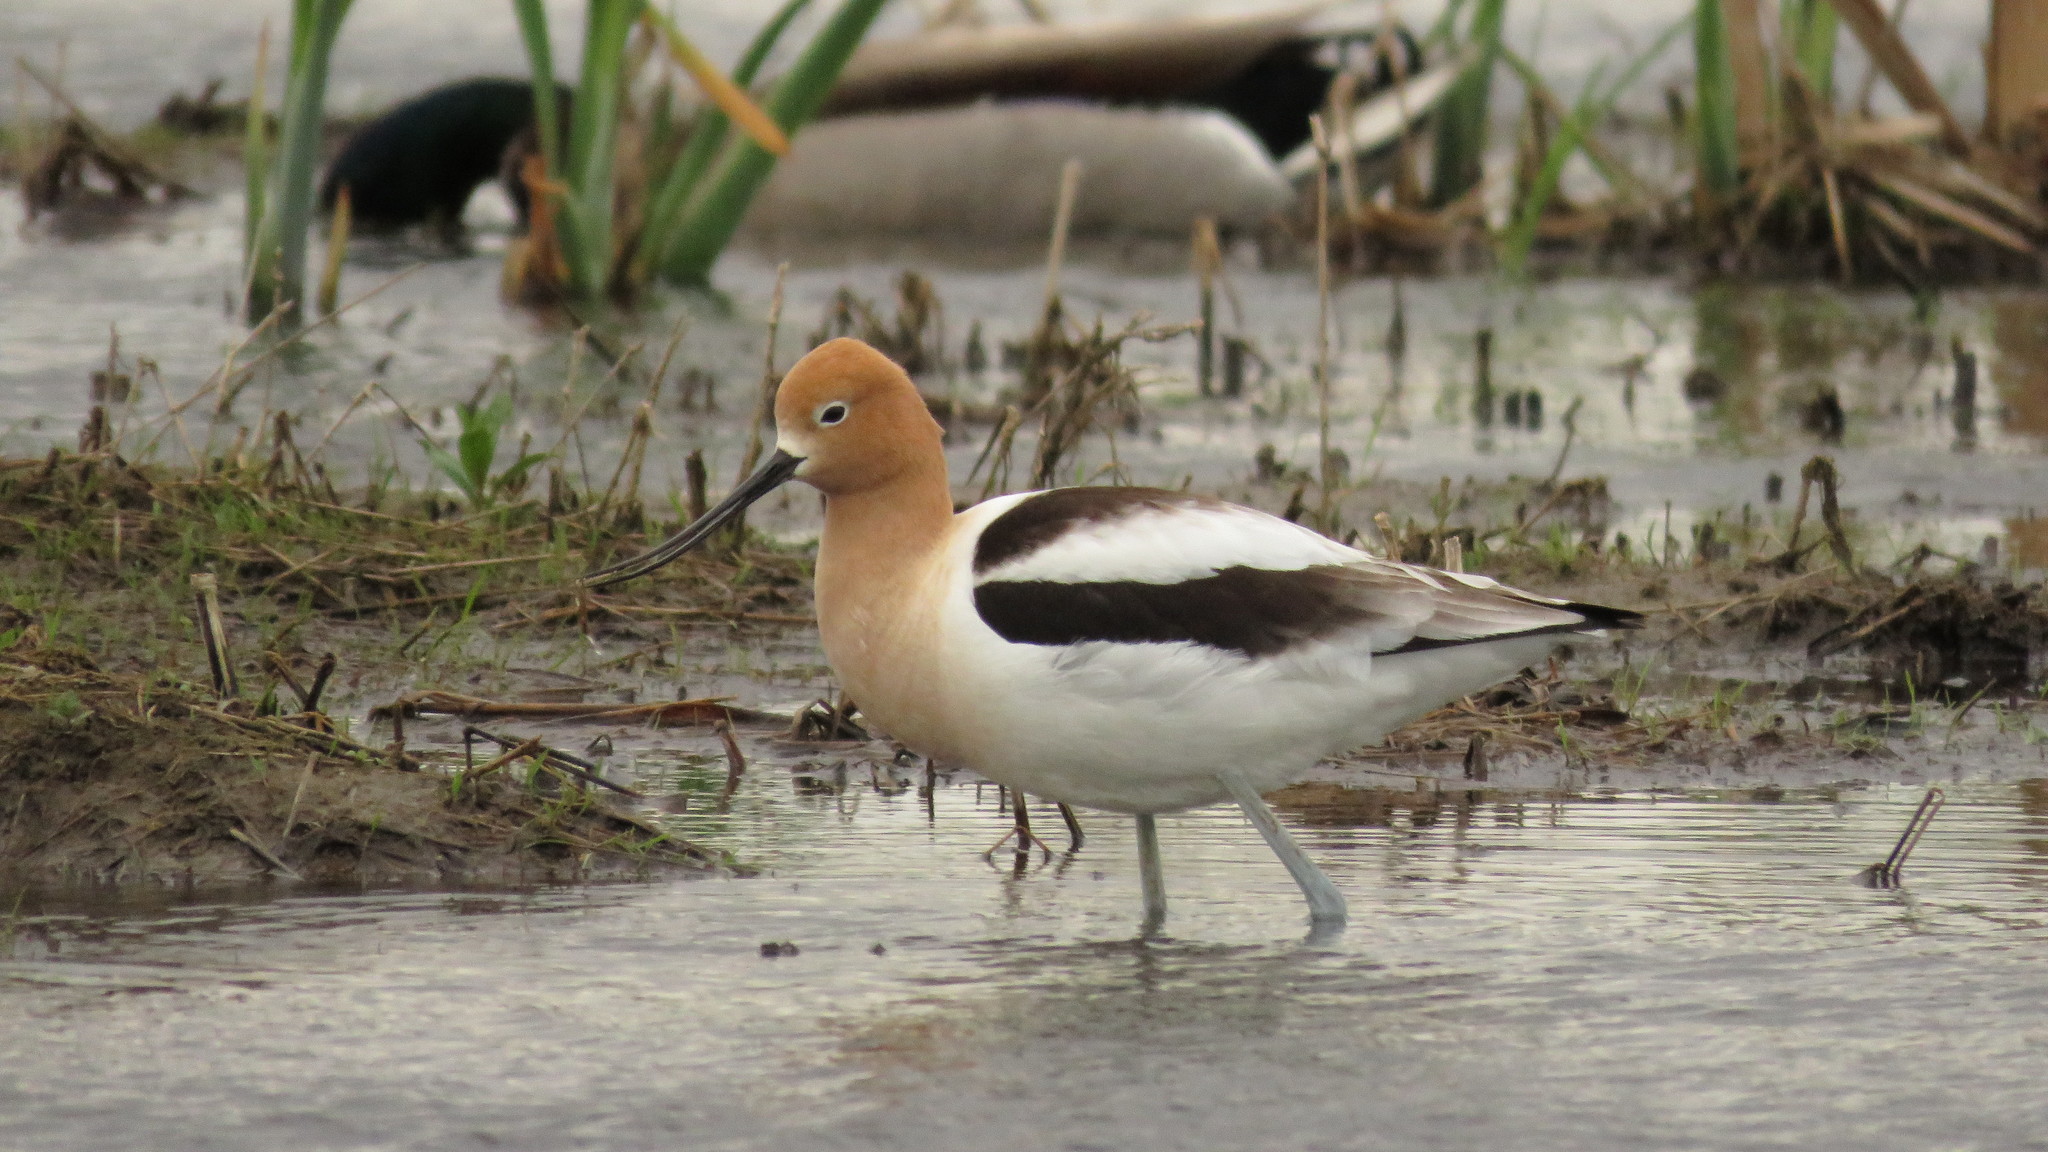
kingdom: Animalia
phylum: Chordata
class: Aves
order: Charadriiformes
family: Recurvirostridae
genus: Recurvirostra
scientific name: Recurvirostra americana
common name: American avocet
